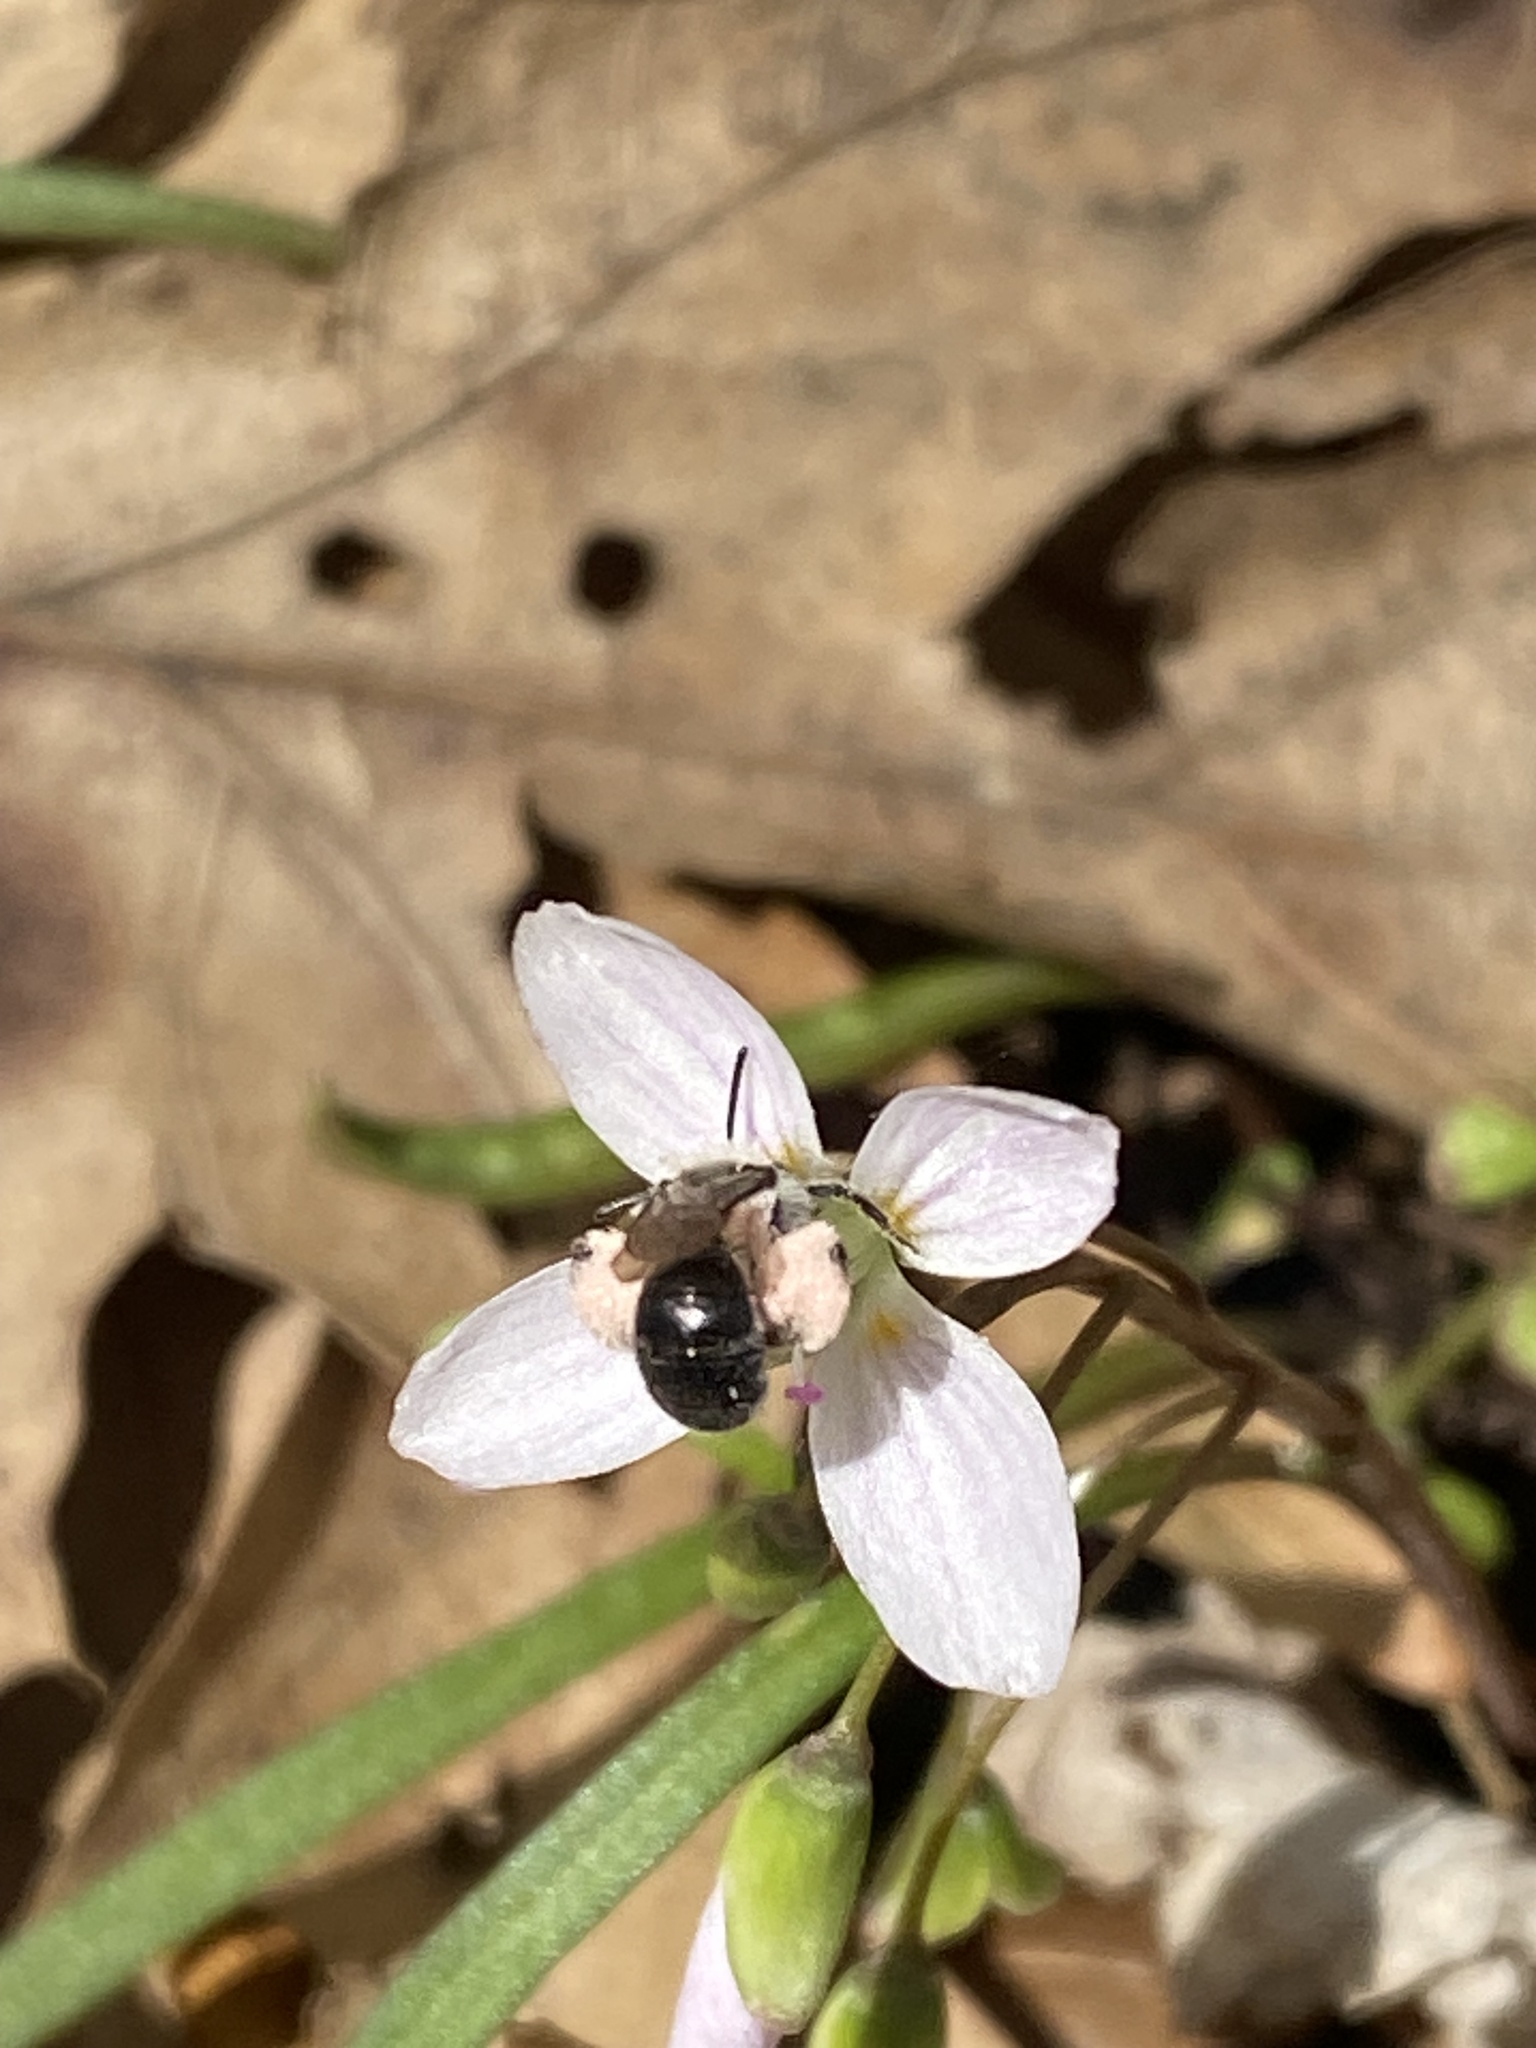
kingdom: Animalia
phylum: Arthropoda
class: Insecta
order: Hymenoptera
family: Andrenidae
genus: Andrena
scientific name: Andrena erigeniae
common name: Spring beauty miner
